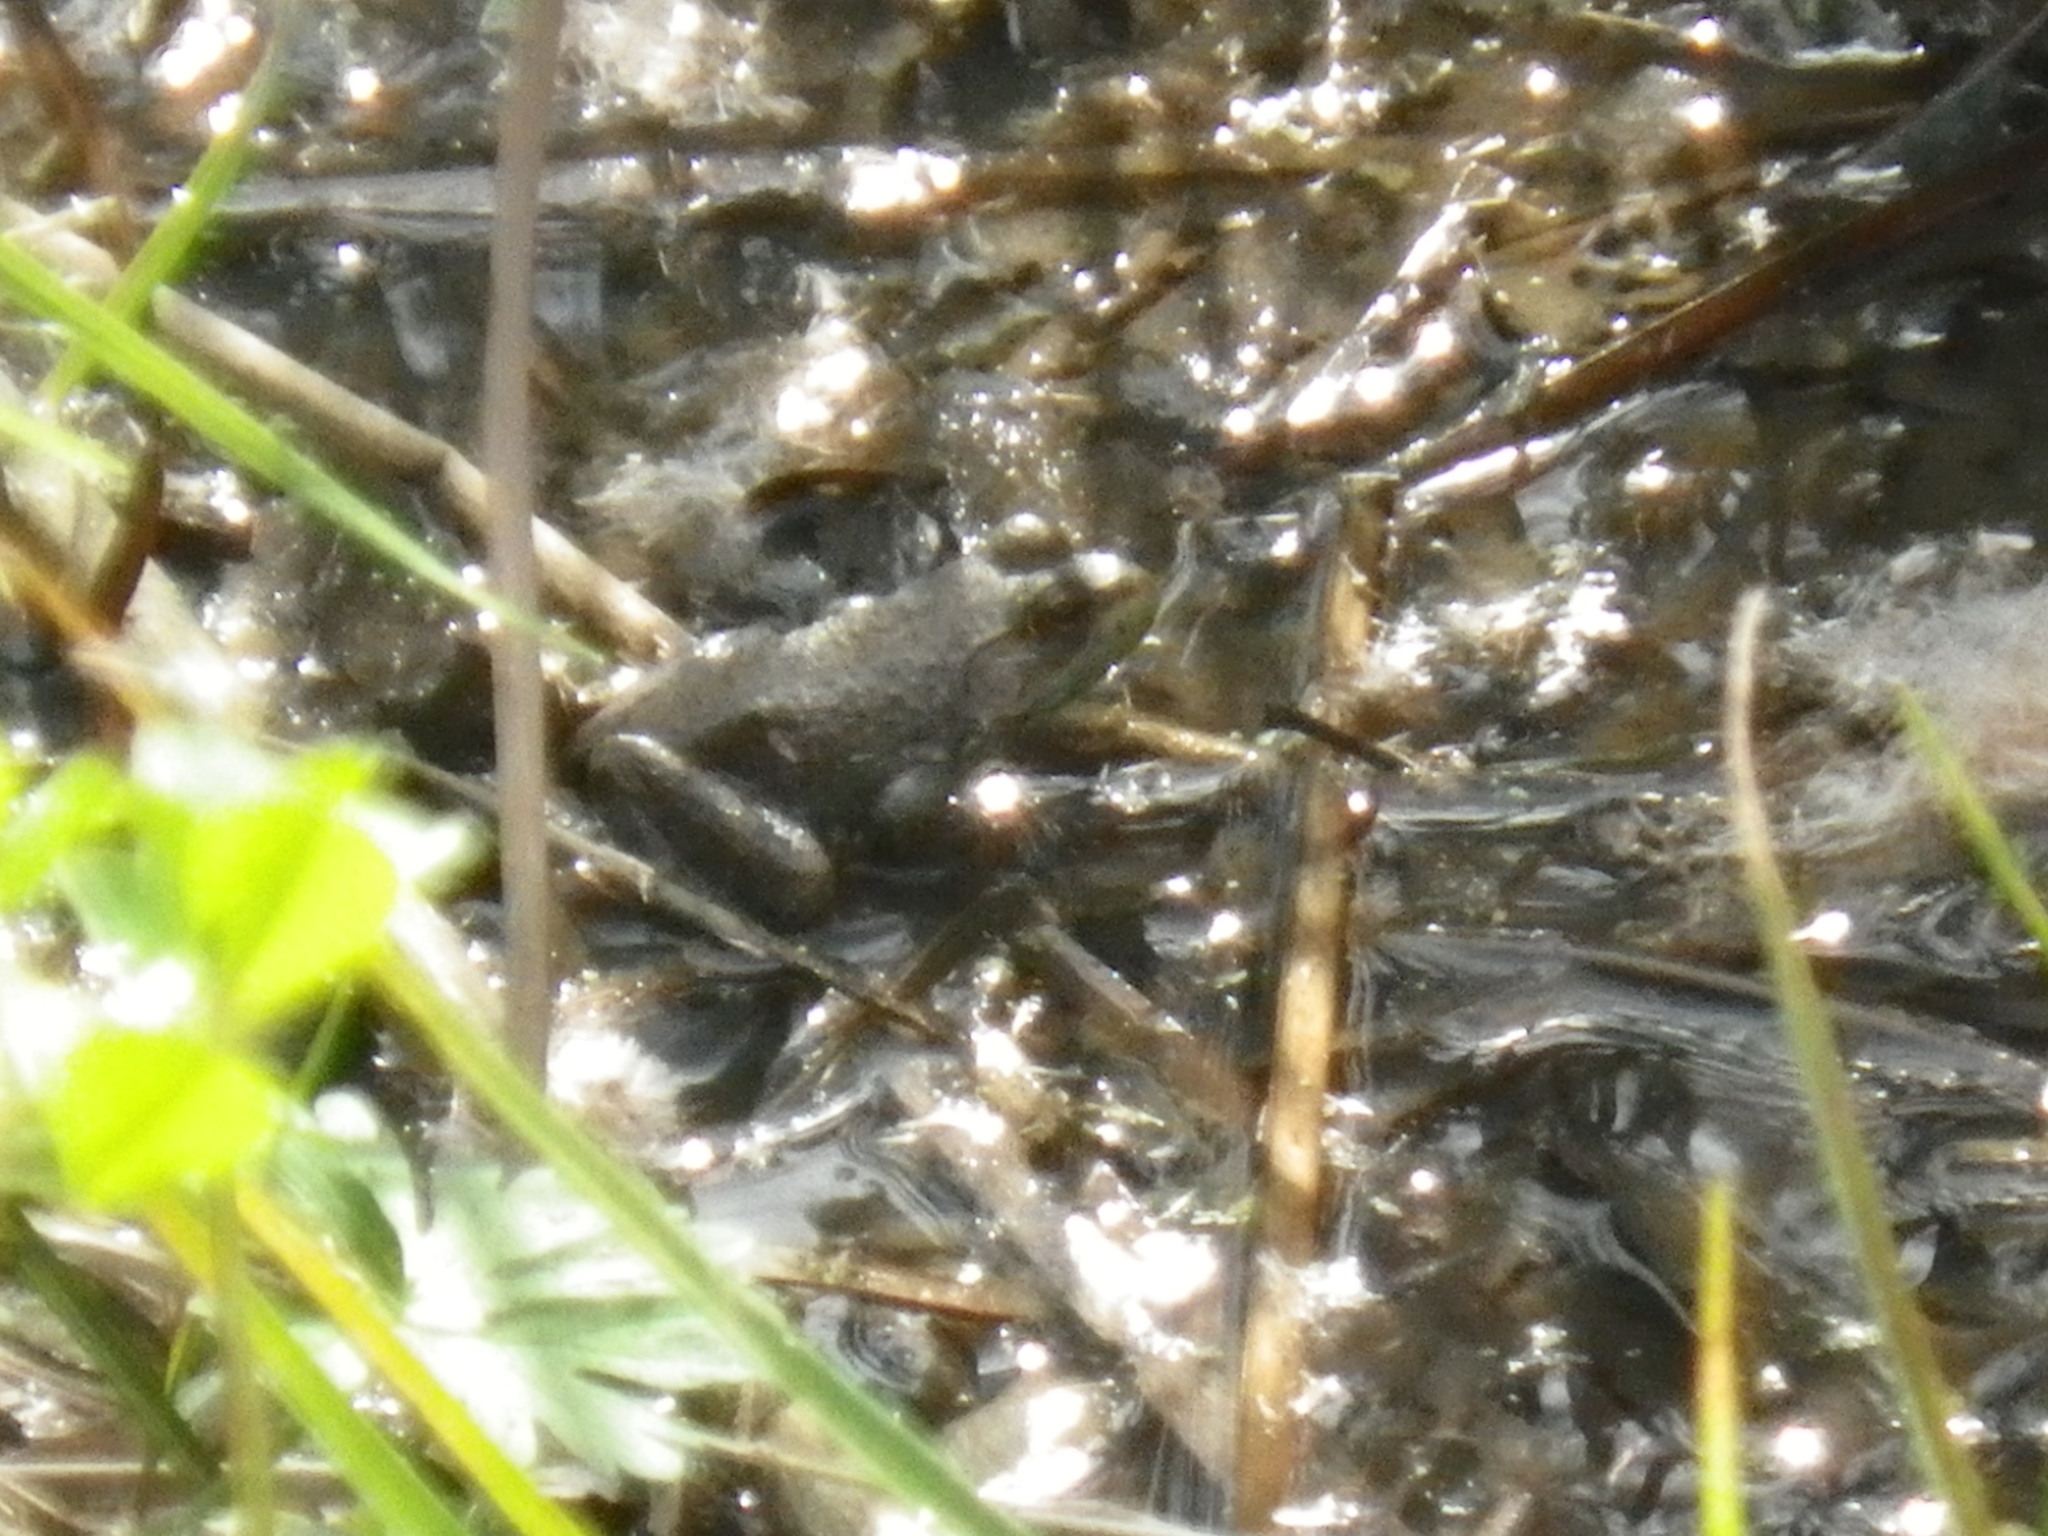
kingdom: Animalia
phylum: Chordata
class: Amphibia
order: Anura
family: Ranidae
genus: Lithobates
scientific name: Lithobates catesbeianus
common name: American bullfrog
